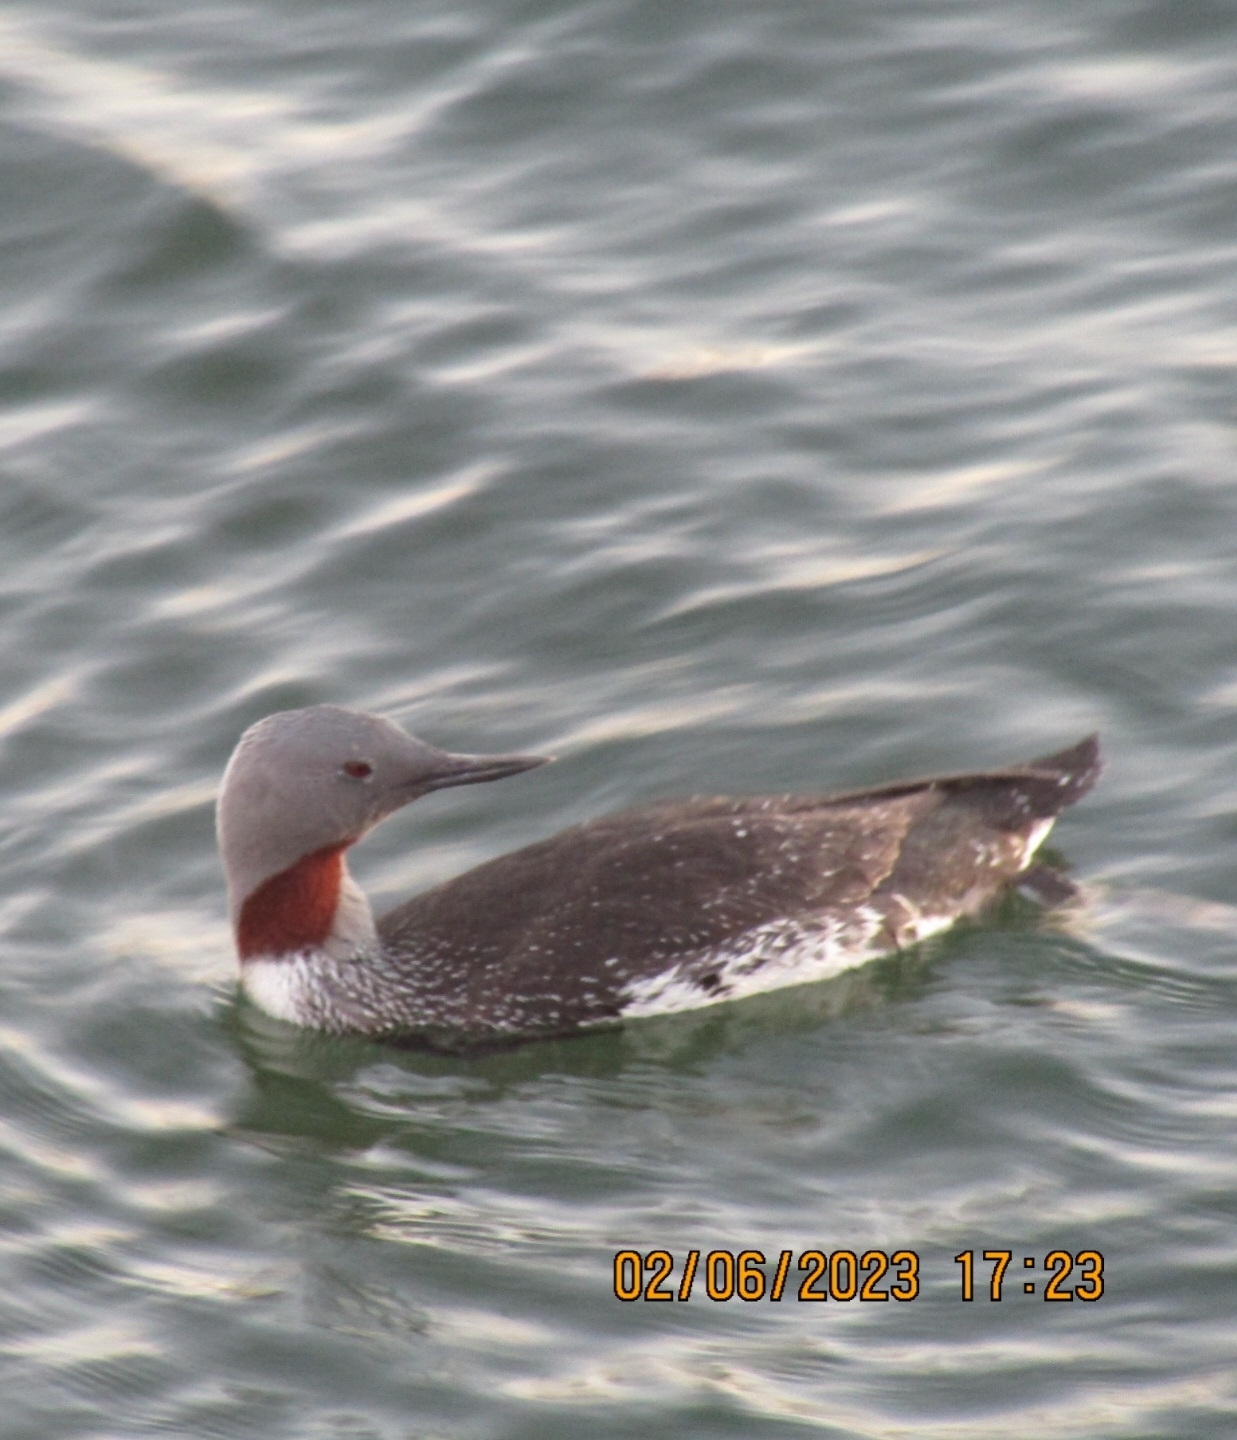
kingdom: Animalia
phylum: Chordata
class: Aves
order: Gaviiformes
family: Gaviidae
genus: Gavia
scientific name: Gavia stellata
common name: Red-throated loon
